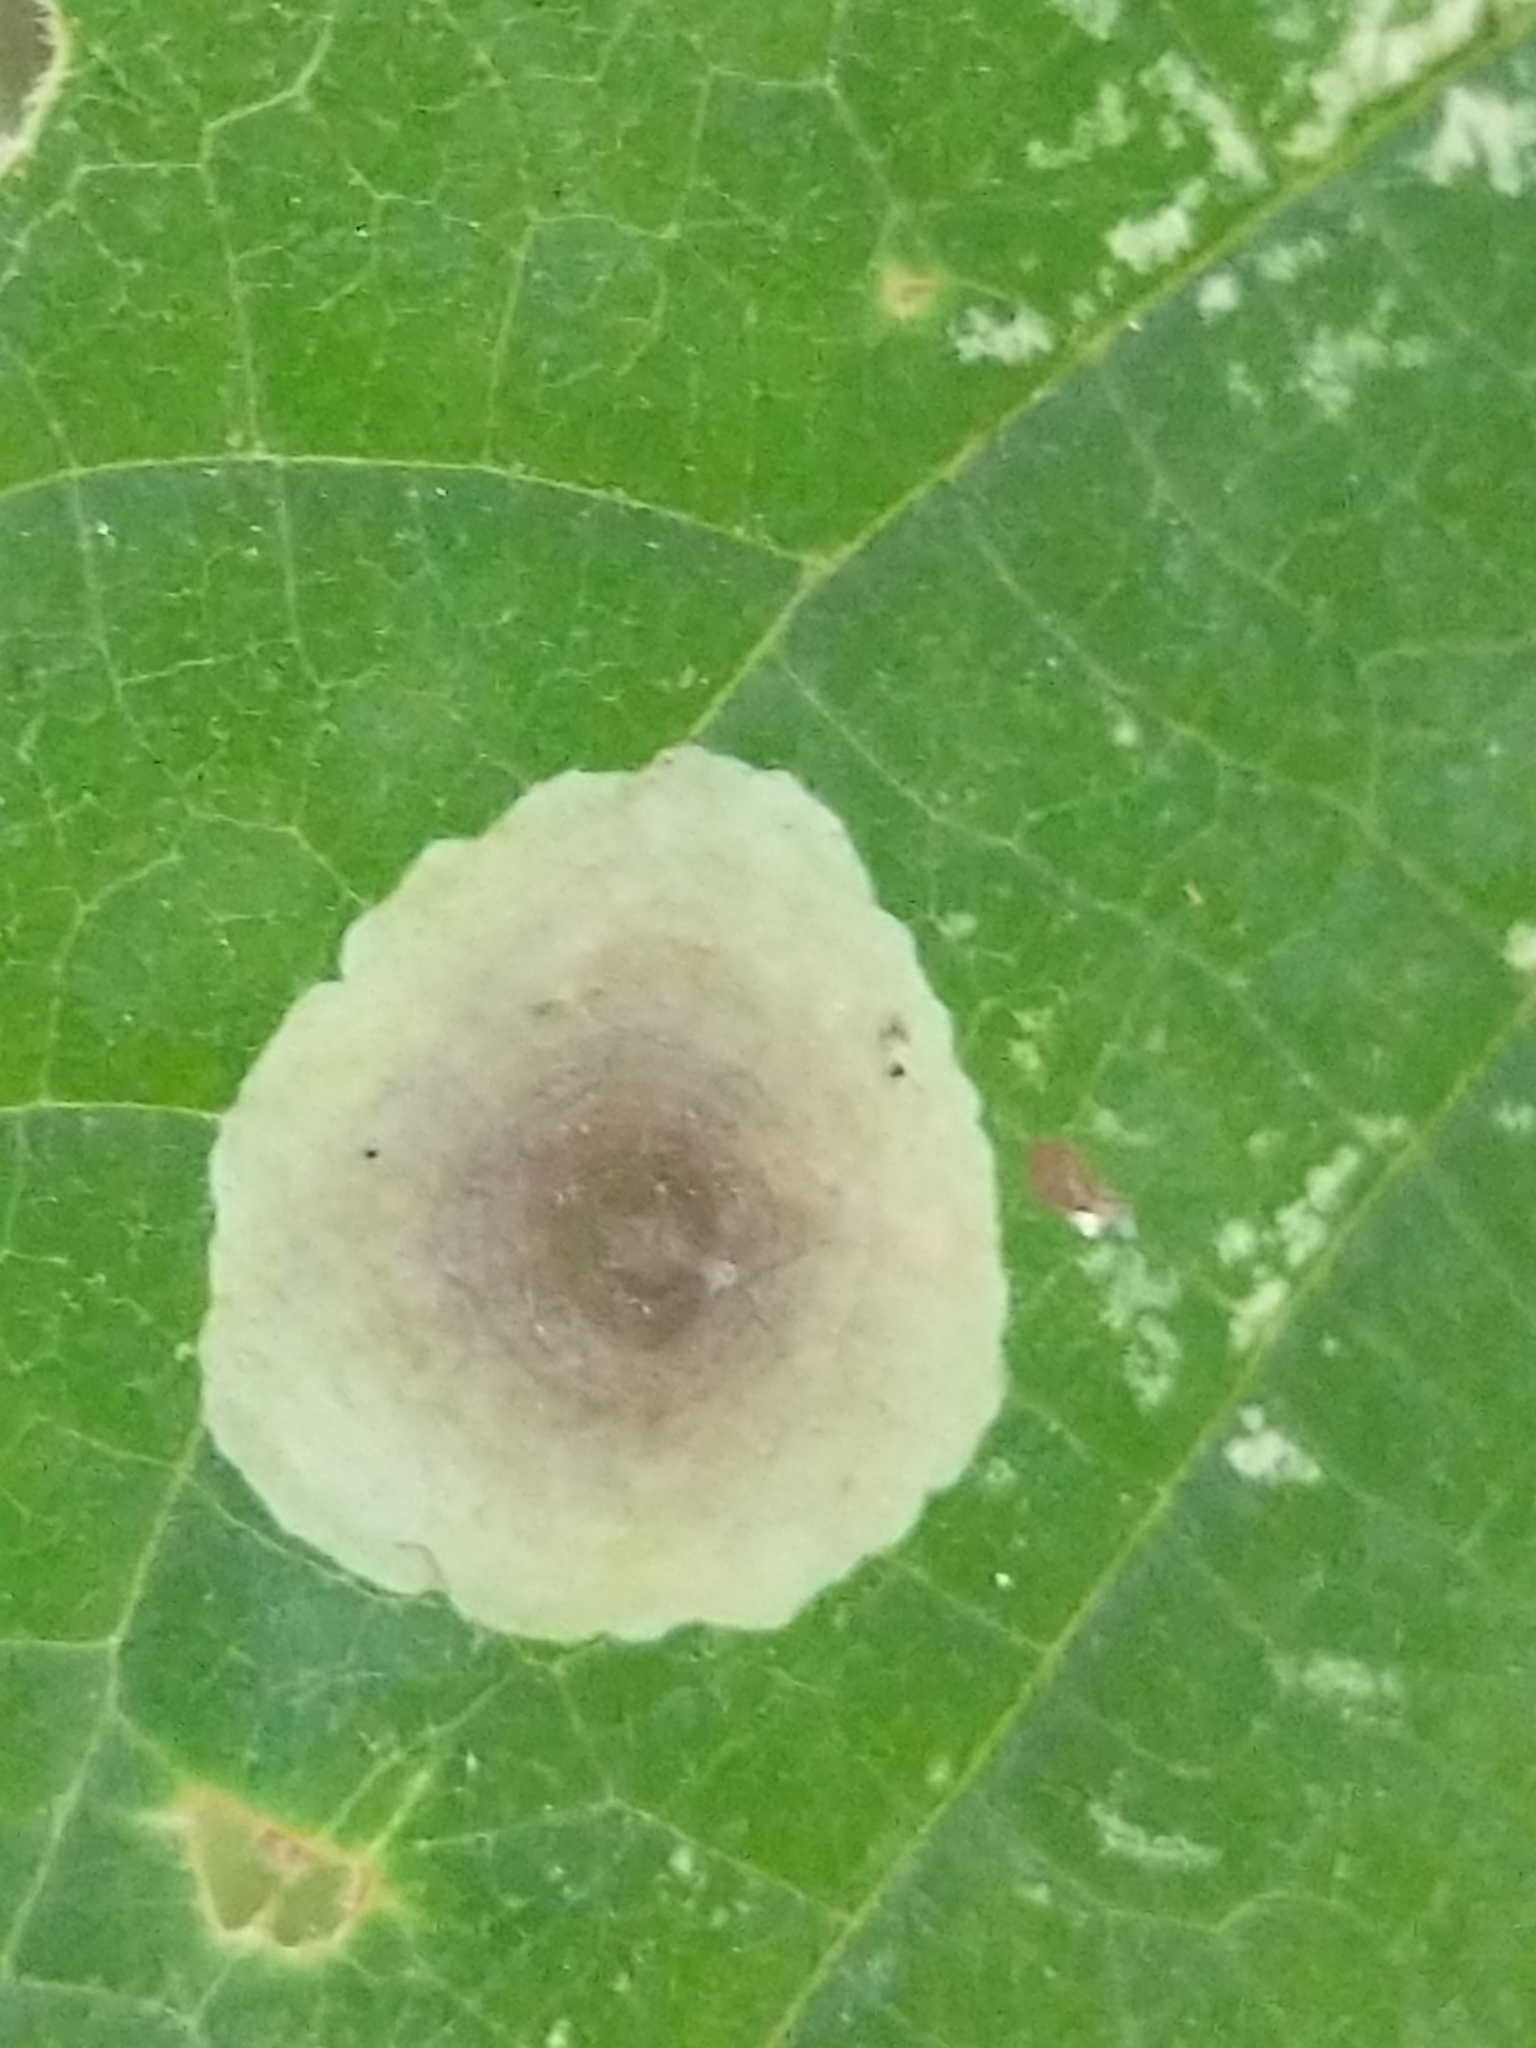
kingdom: Animalia
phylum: Arthropoda
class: Insecta
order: Lepidoptera
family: Gracillariidae
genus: Cameraria
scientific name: Cameraria hamameliella
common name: Witchhazel leafminer
